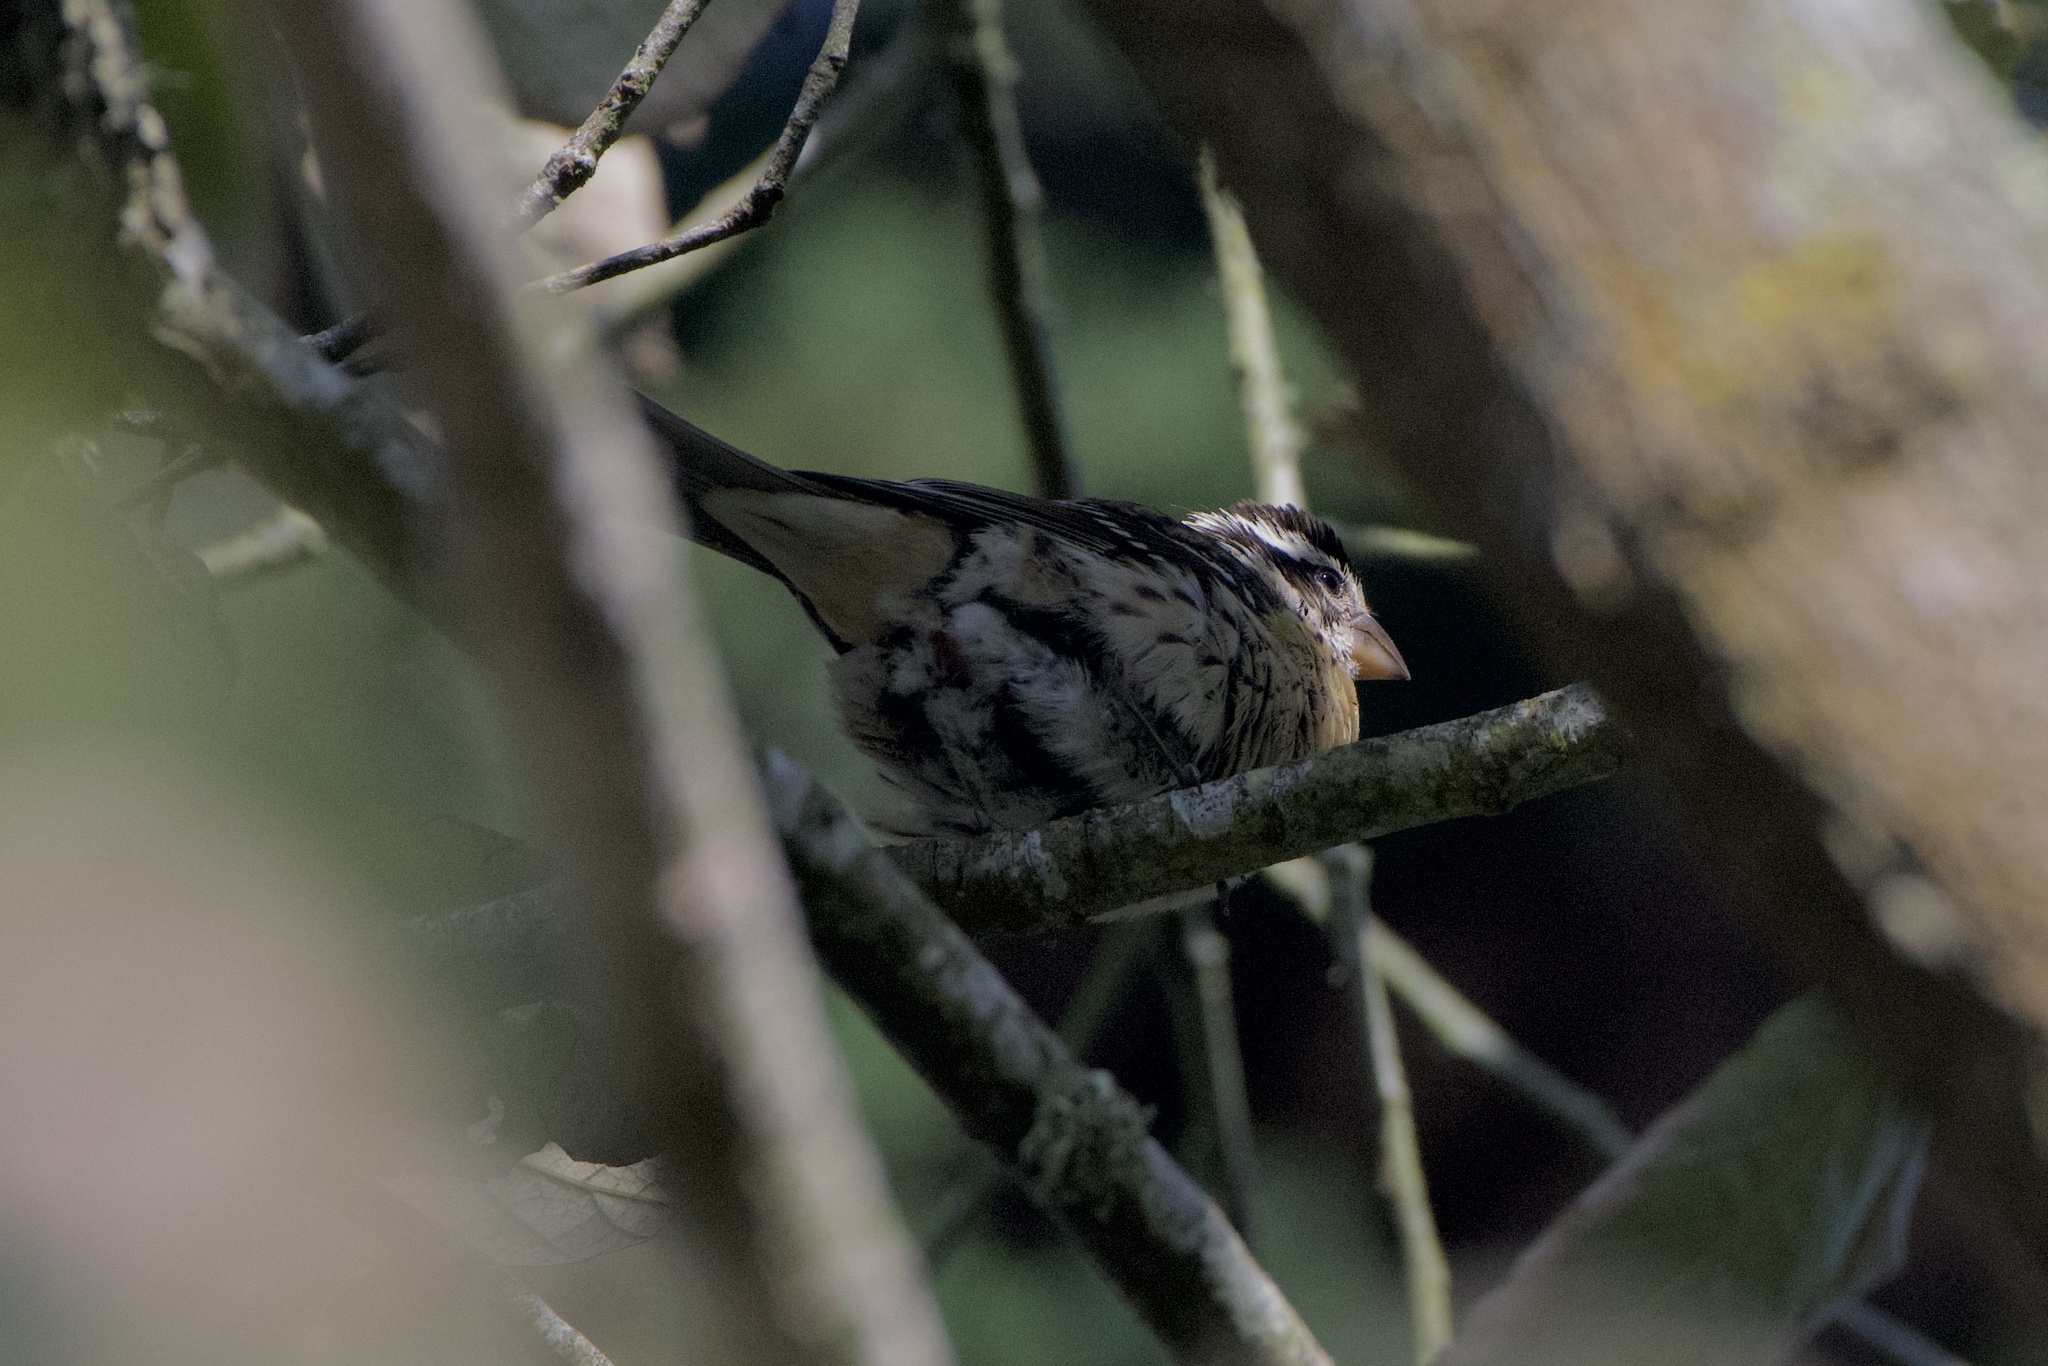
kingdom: Animalia
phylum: Chordata
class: Aves
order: Passeriformes
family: Cardinalidae
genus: Pheucticus
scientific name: Pheucticus melanocephalus
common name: Black-headed grosbeak
